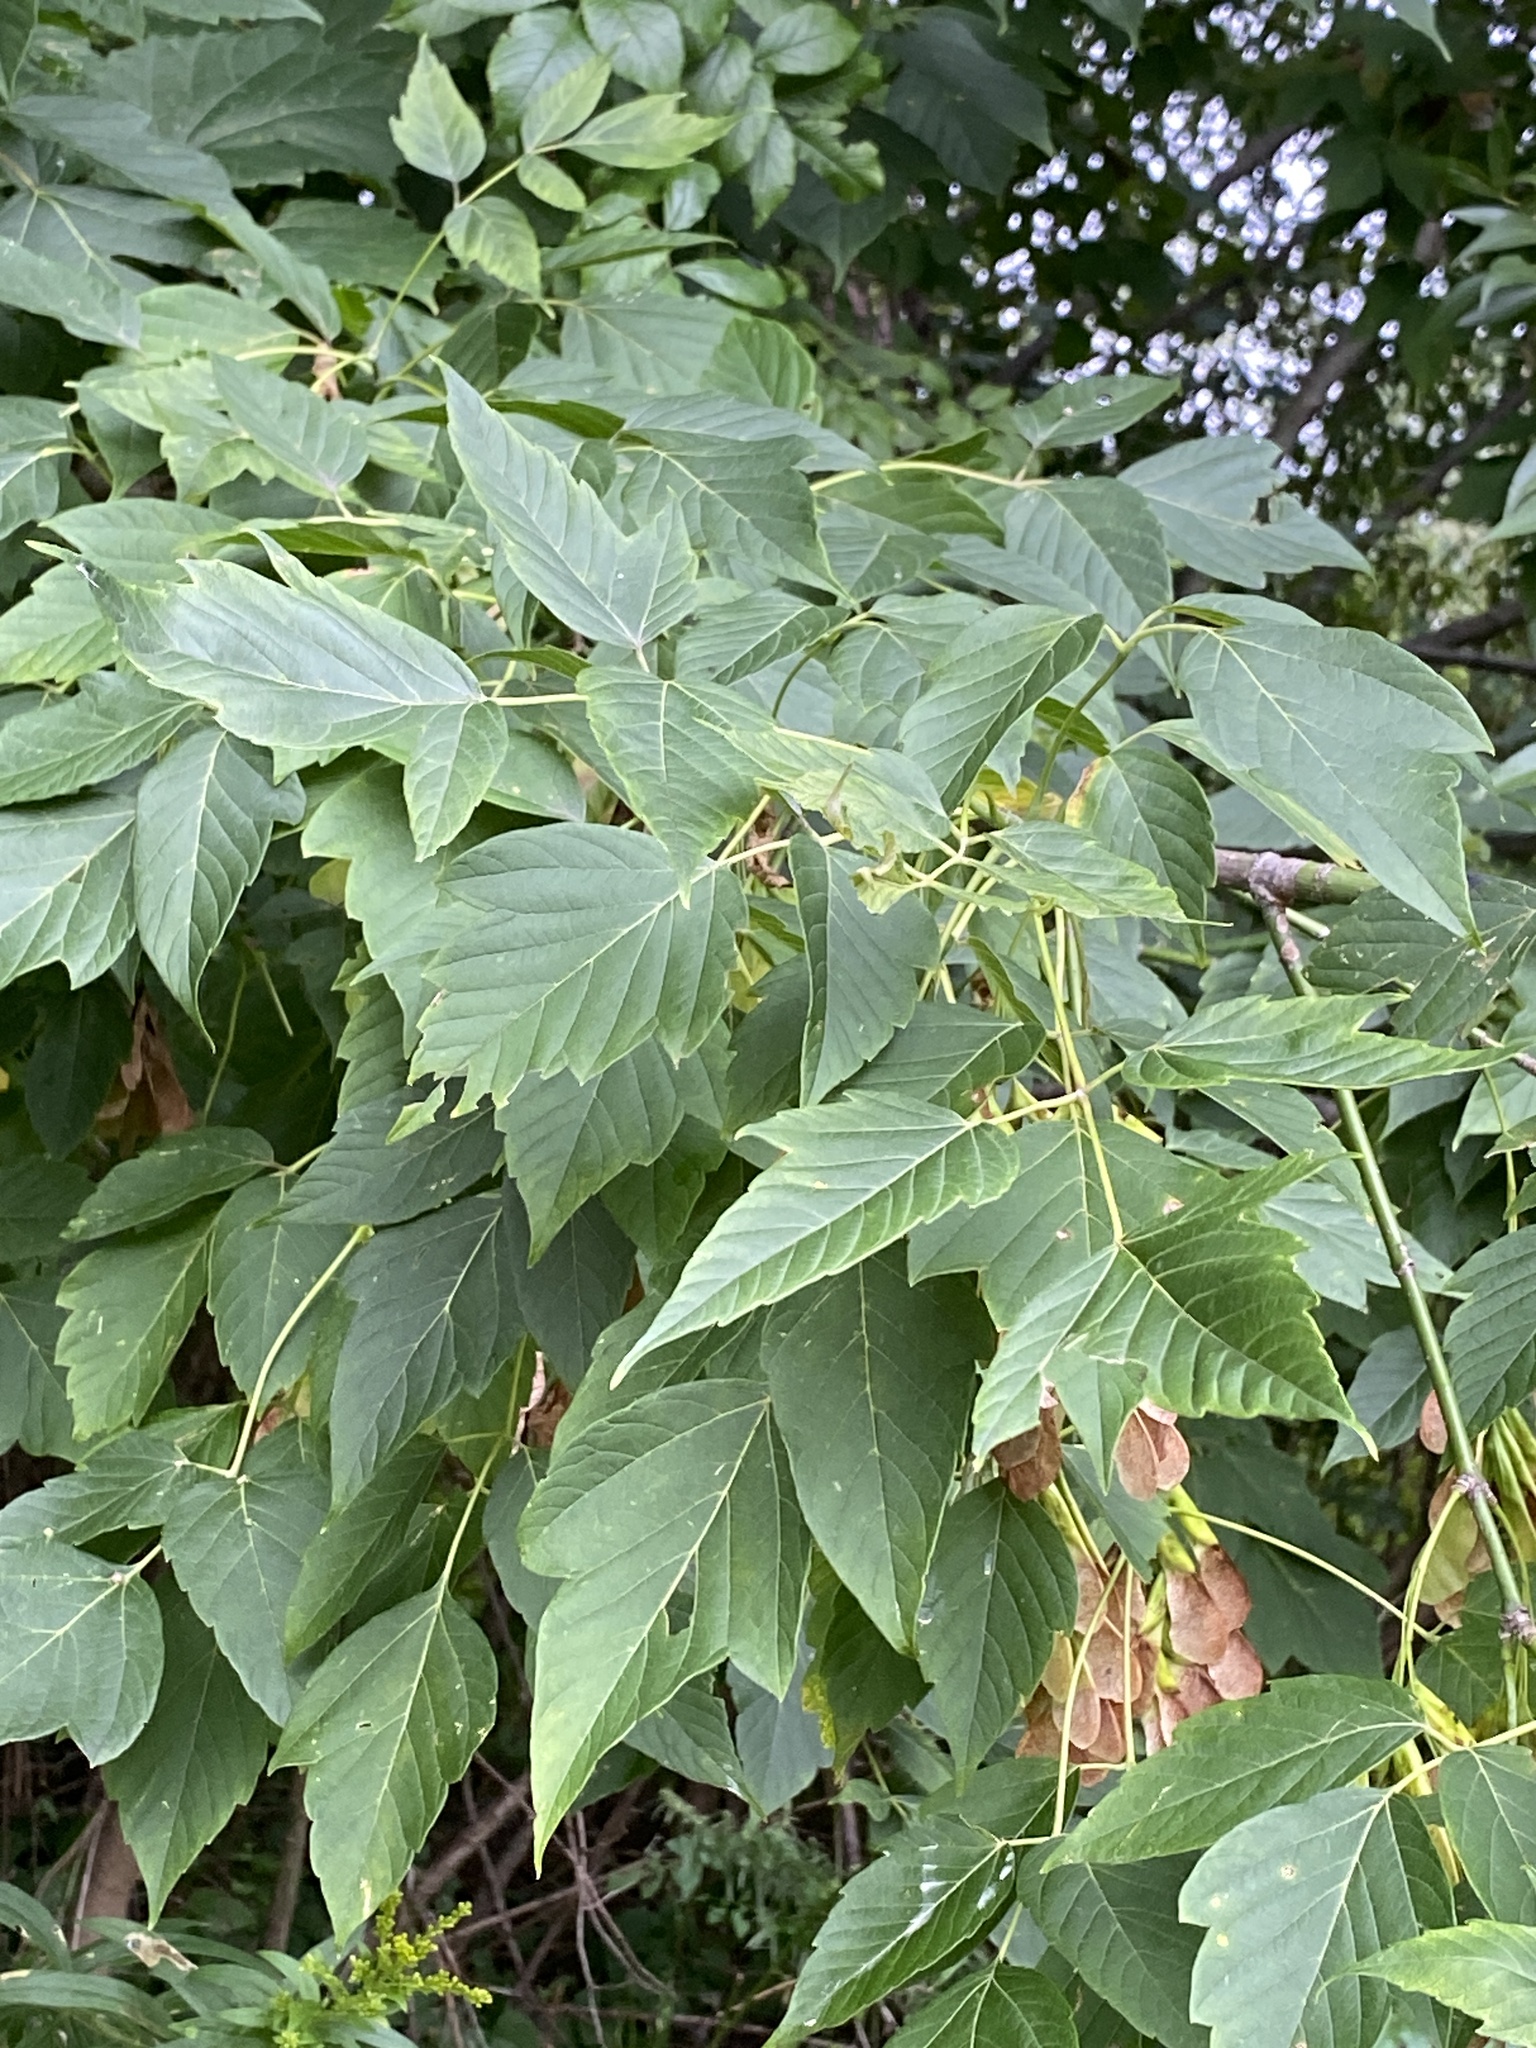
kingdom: Plantae
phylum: Tracheophyta
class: Magnoliopsida
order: Sapindales
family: Sapindaceae
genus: Acer
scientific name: Acer negundo
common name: Ashleaf maple
